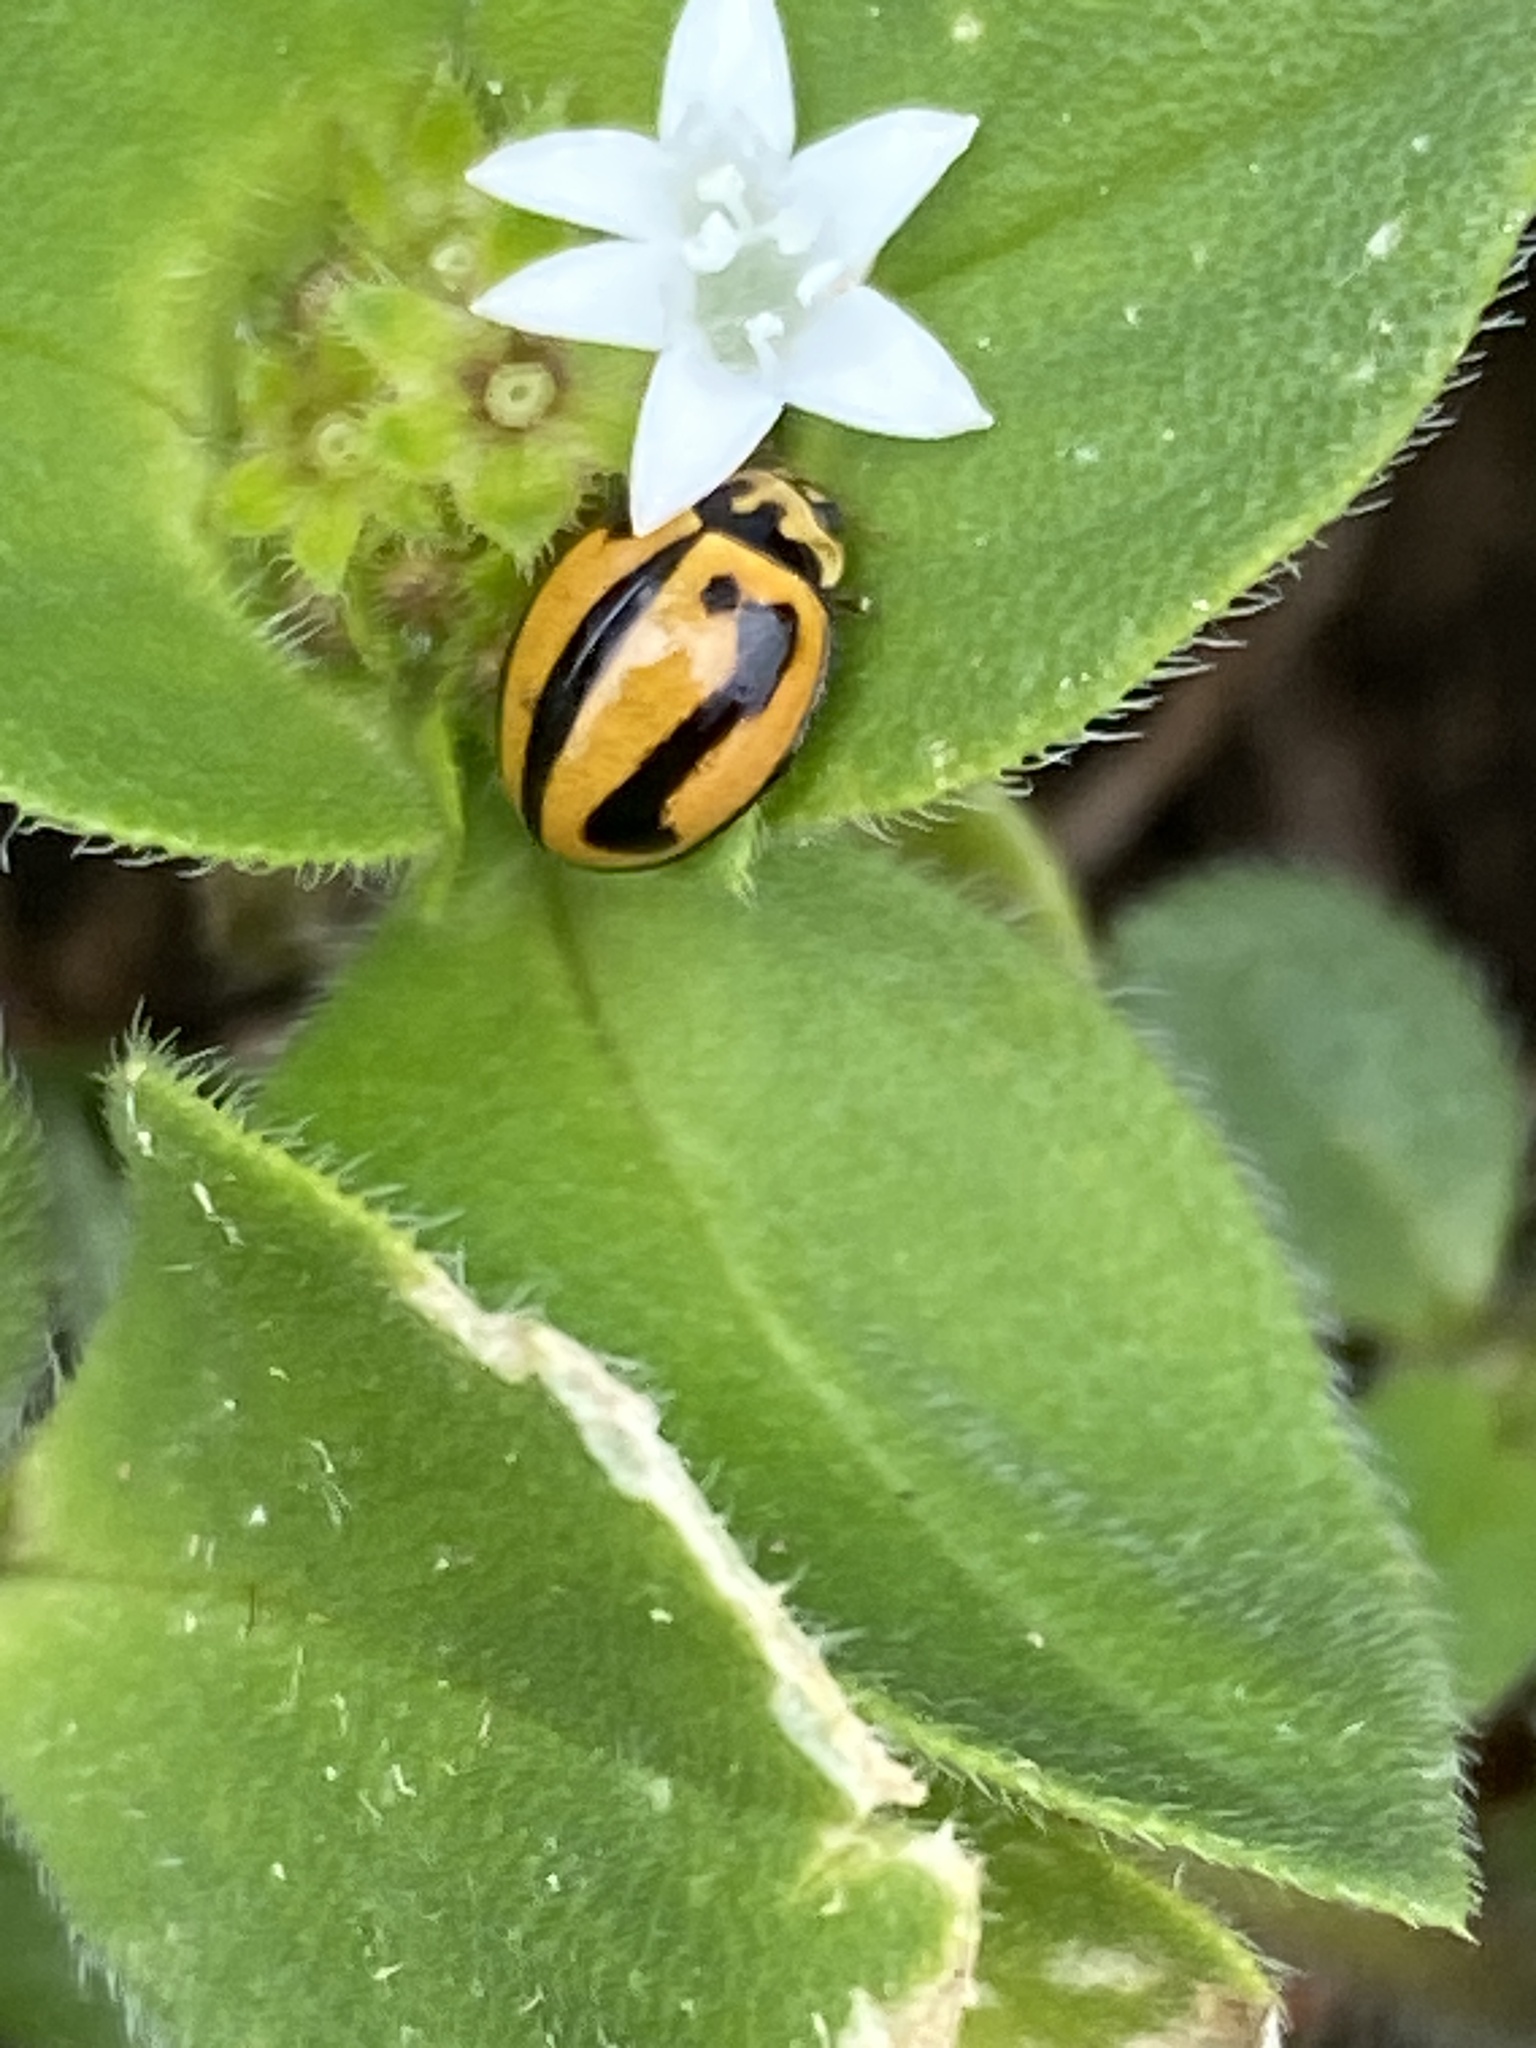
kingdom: Animalia
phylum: Arthropoda
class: Insecta
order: Coleoptera
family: Coccinellidae
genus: Micraspis
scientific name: Micraspis frenata
